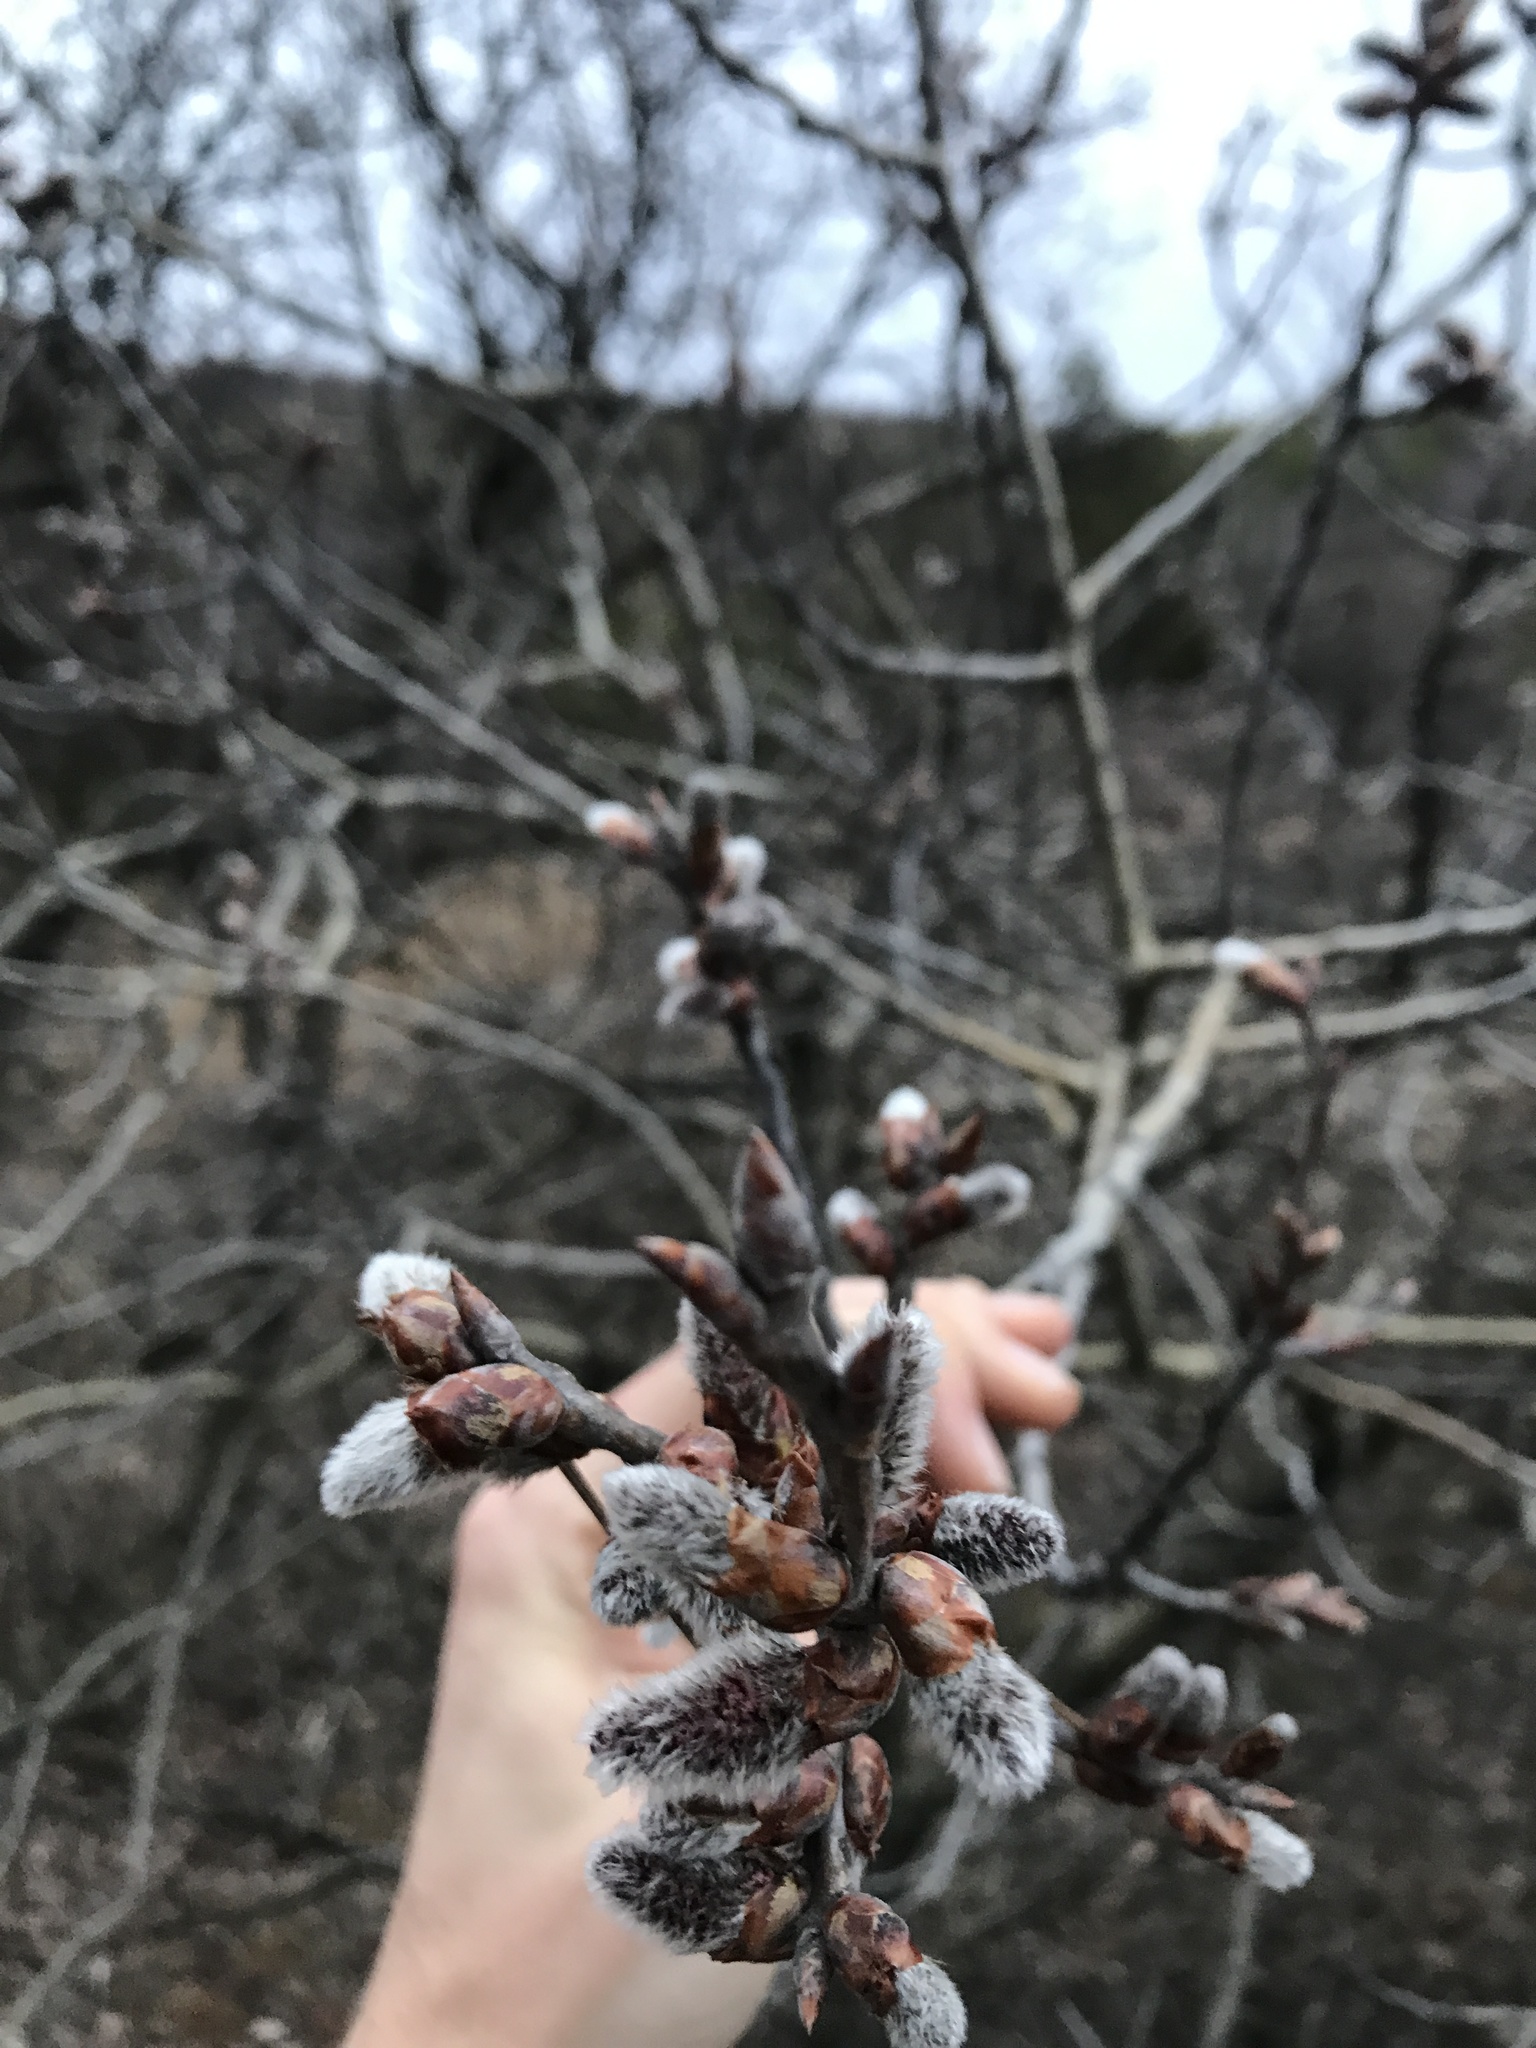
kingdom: Plantae
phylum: Tracheophyta
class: Magnoliopsida
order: Malpighiales
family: Salicaceae
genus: Salix
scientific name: Salix discolor
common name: Glaucous willow
